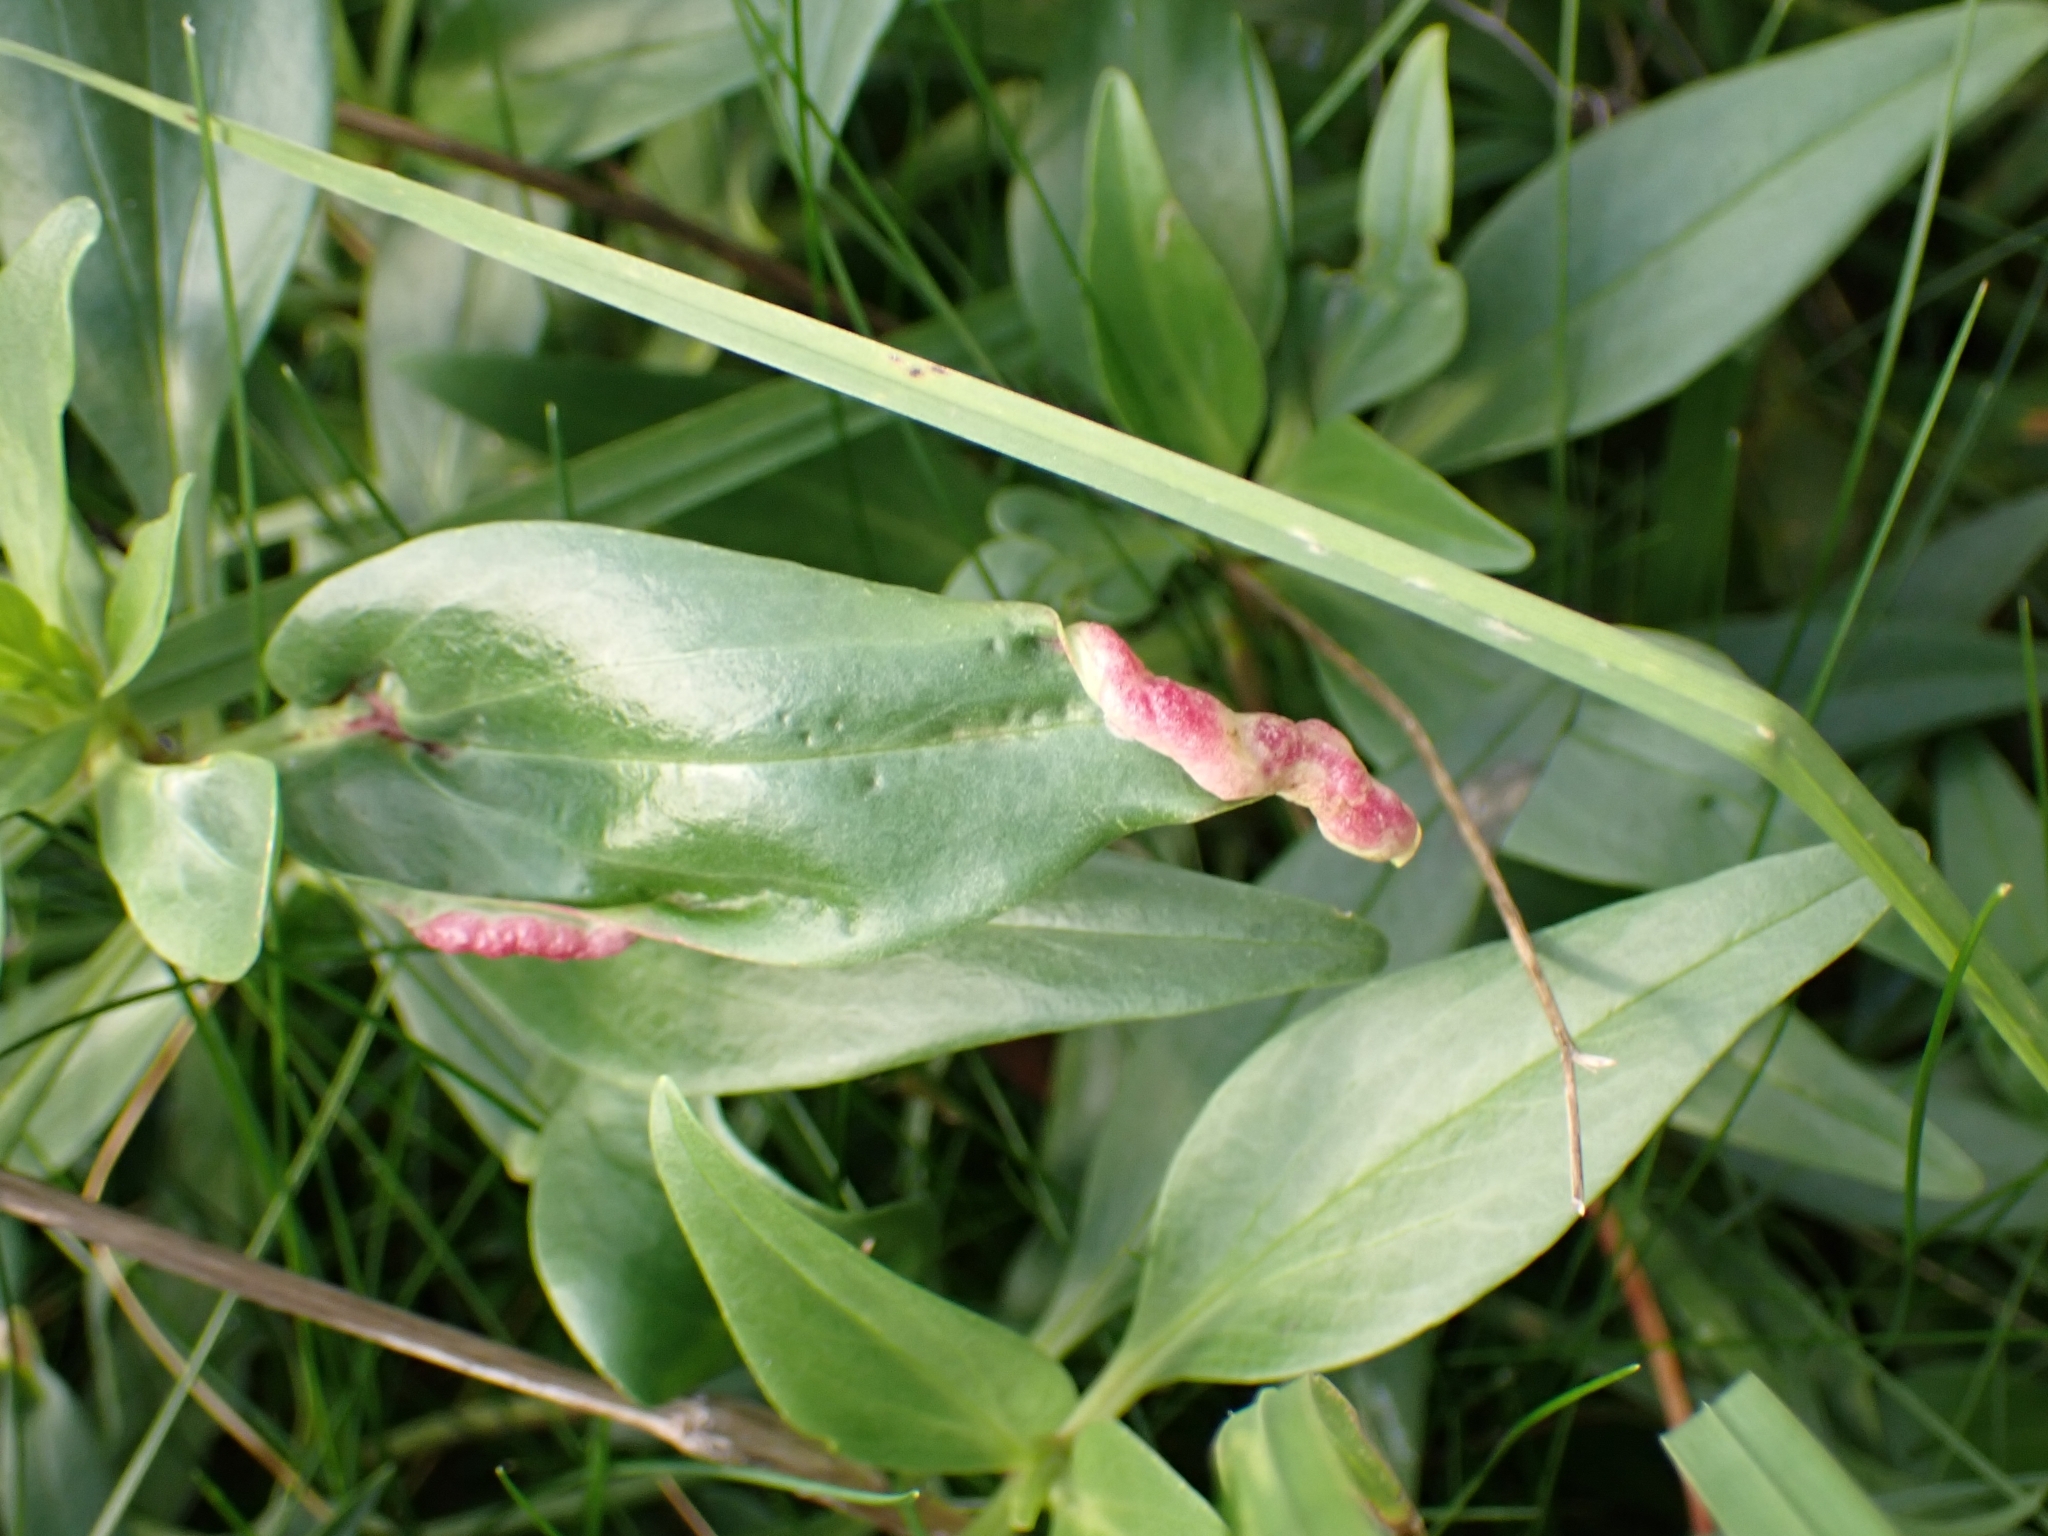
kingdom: Animalia
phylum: Arthropoda
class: Insecta
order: Hemiptera
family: Triozidae
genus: Trioza
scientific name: Trioza centranthi
